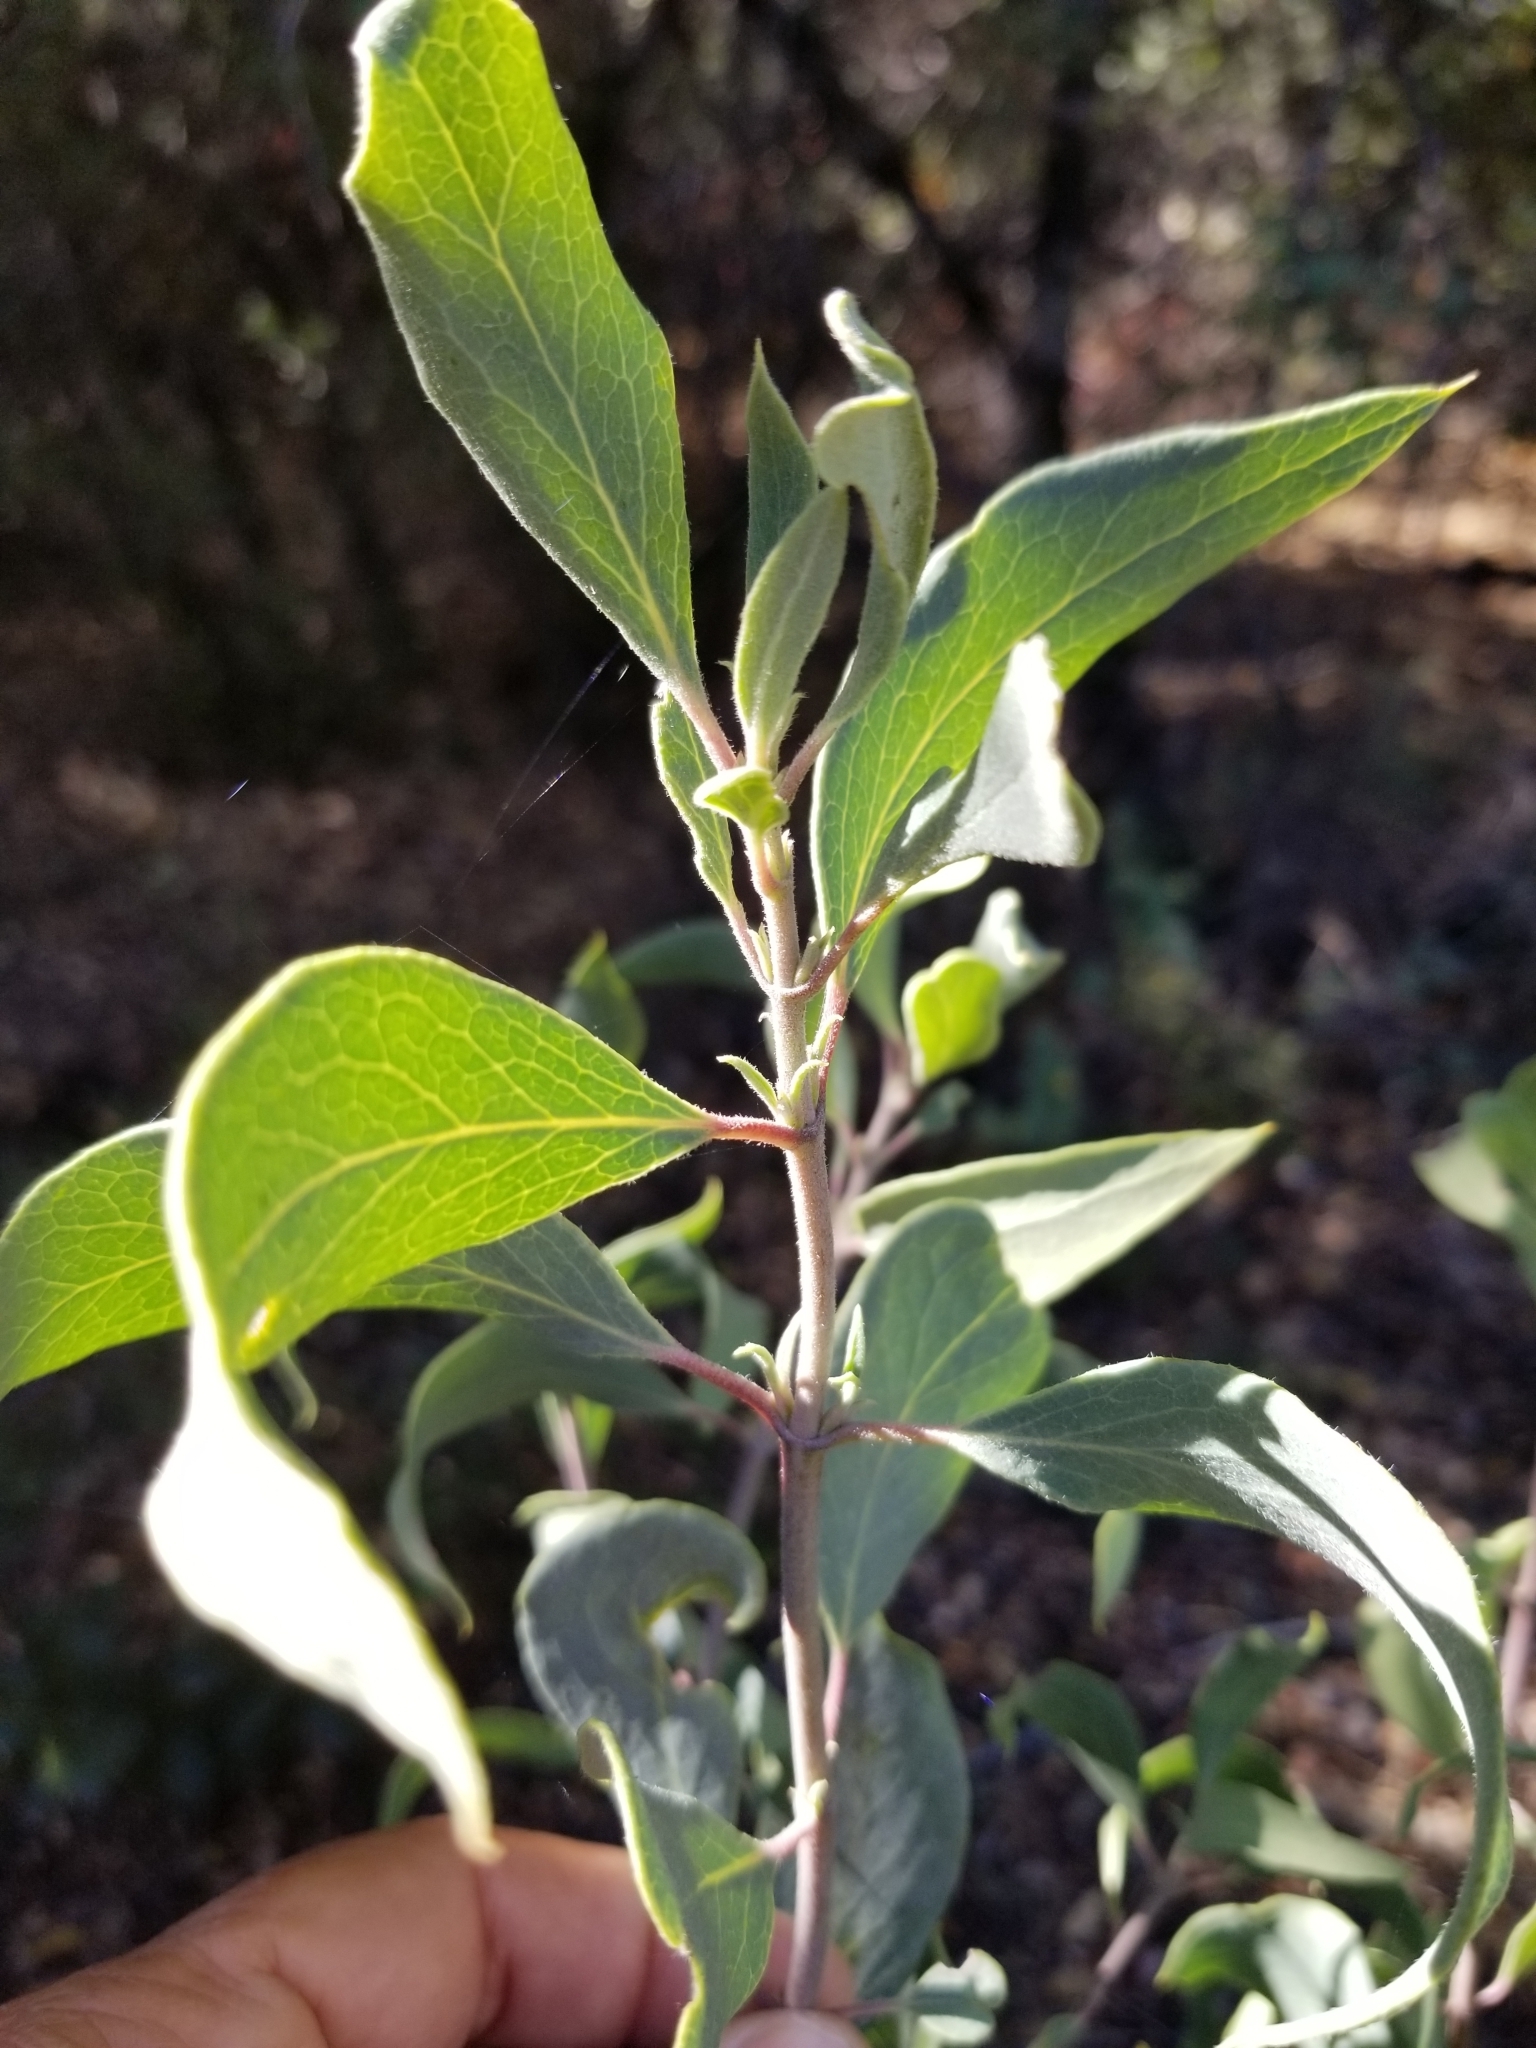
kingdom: Plantae
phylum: Tracheophyta
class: Magnoliopsida
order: Garryales
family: Garryaceae
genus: Garrya
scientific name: Garrya flavescens
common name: Ashy silk-tassel
